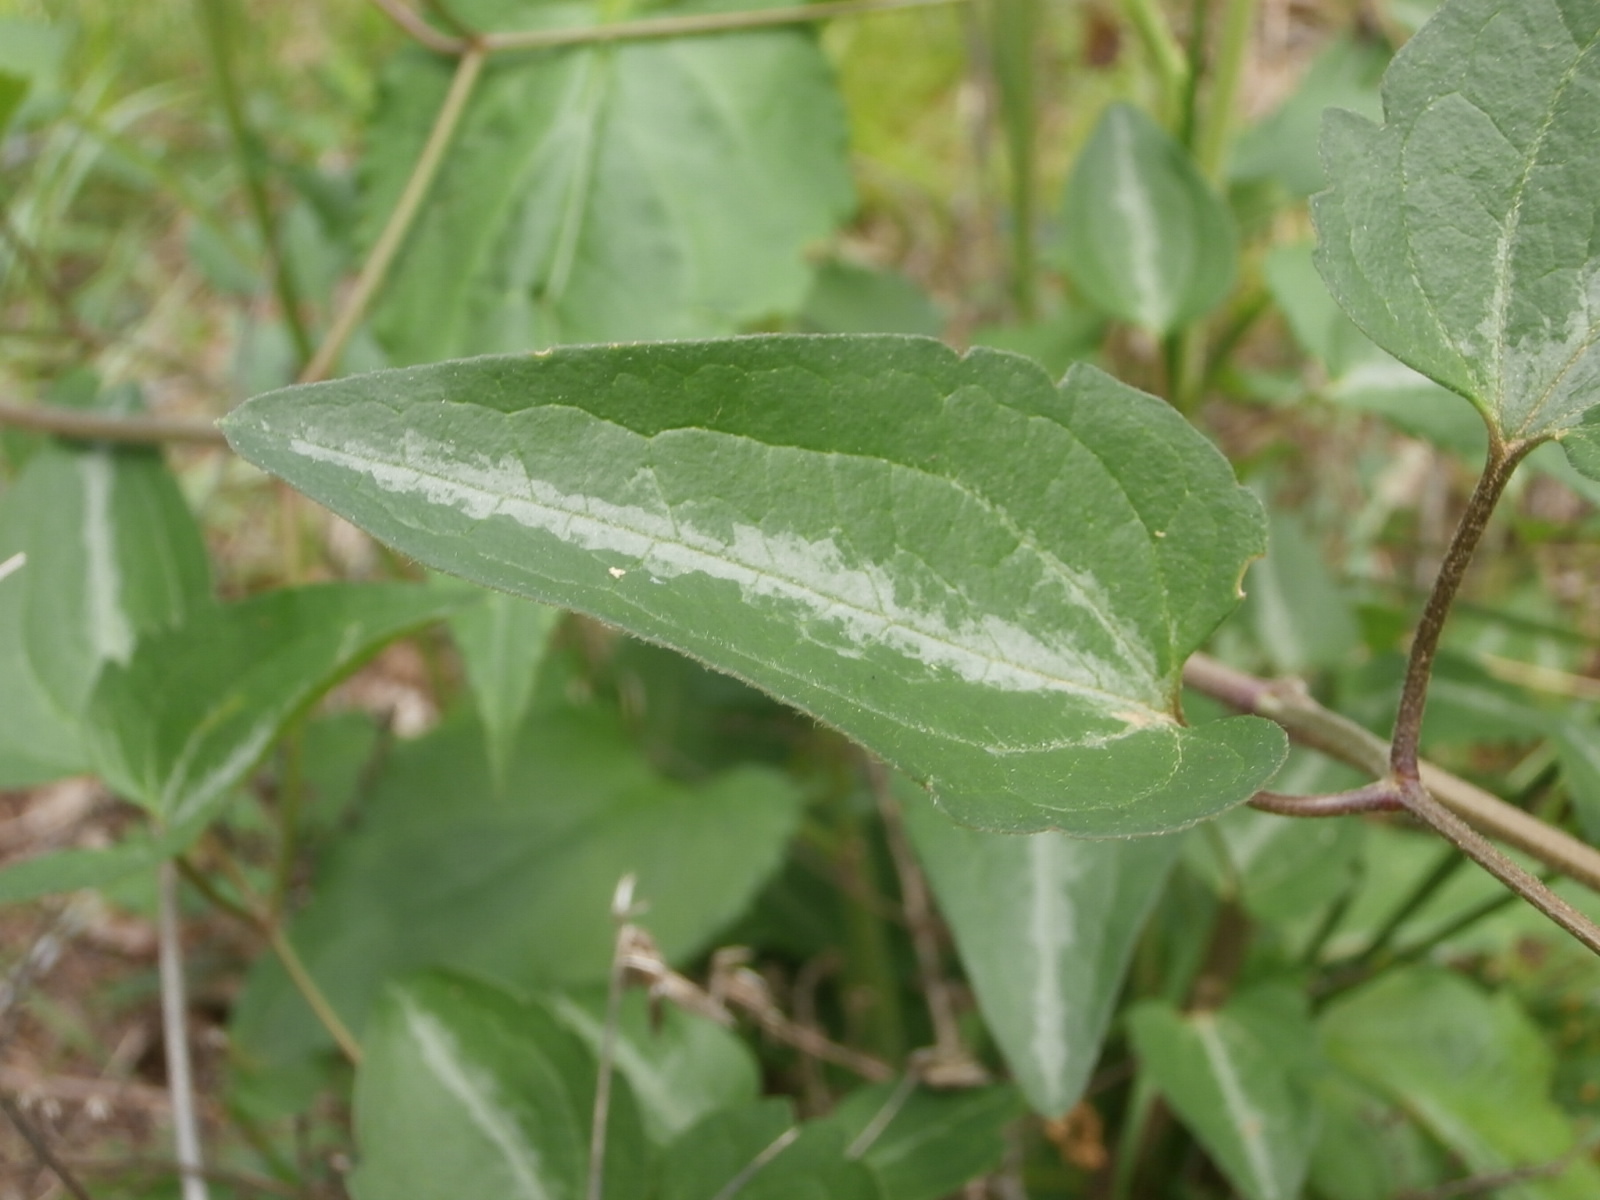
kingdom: Plantae
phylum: Tracheophyta
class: Magnoliopsida
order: Ranunculales
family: Ranunculaceae
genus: Clematis
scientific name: Clematis terniflora
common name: Sweet autumn clematis
